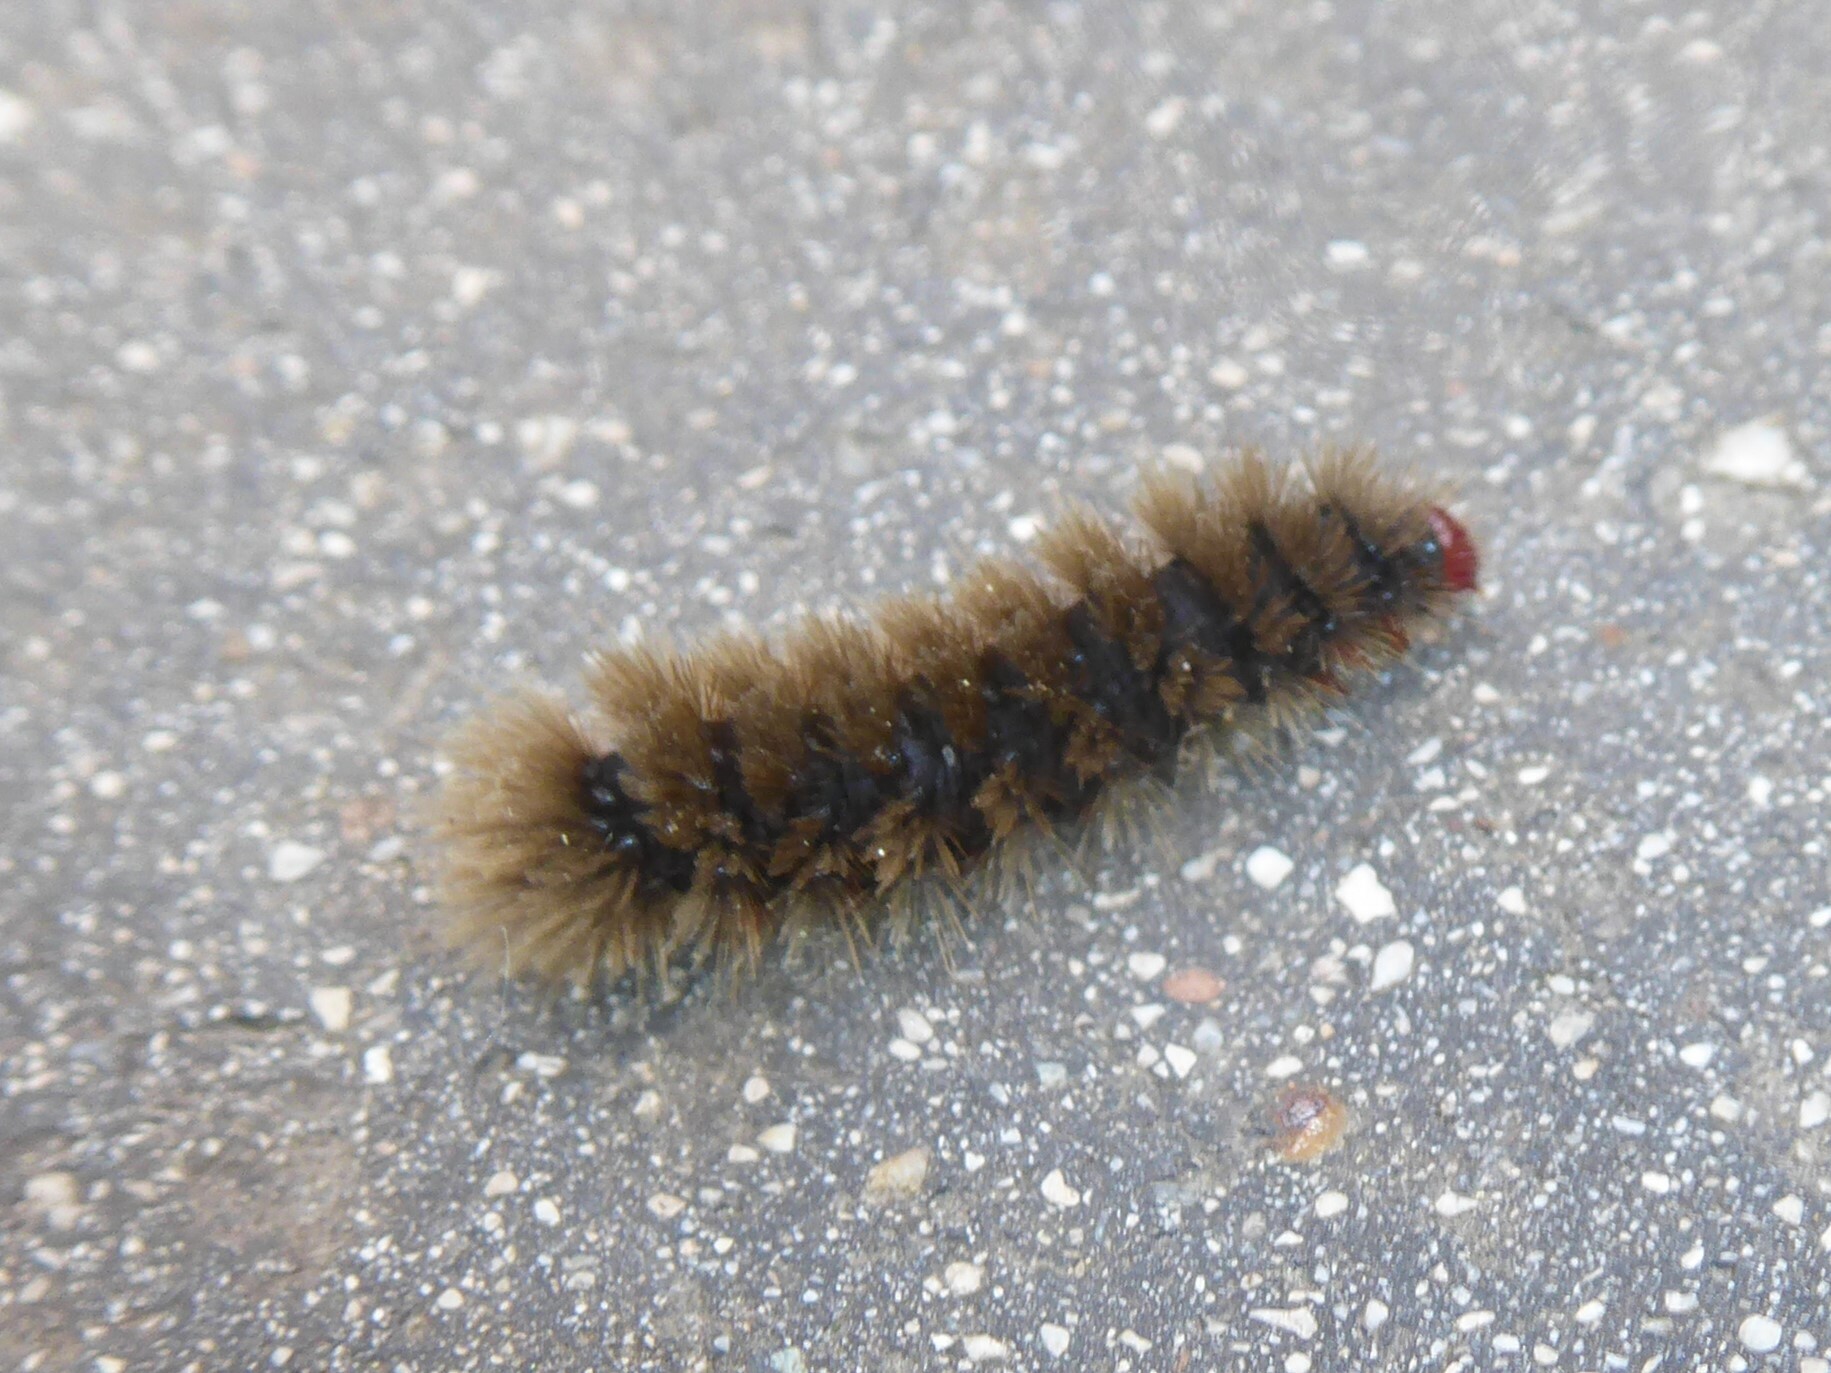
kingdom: Animalia
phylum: Arthropoda
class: Insecta
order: Lepidoptera
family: Erebidae
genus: Amata
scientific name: Amata phegea
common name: Nine-spotted
